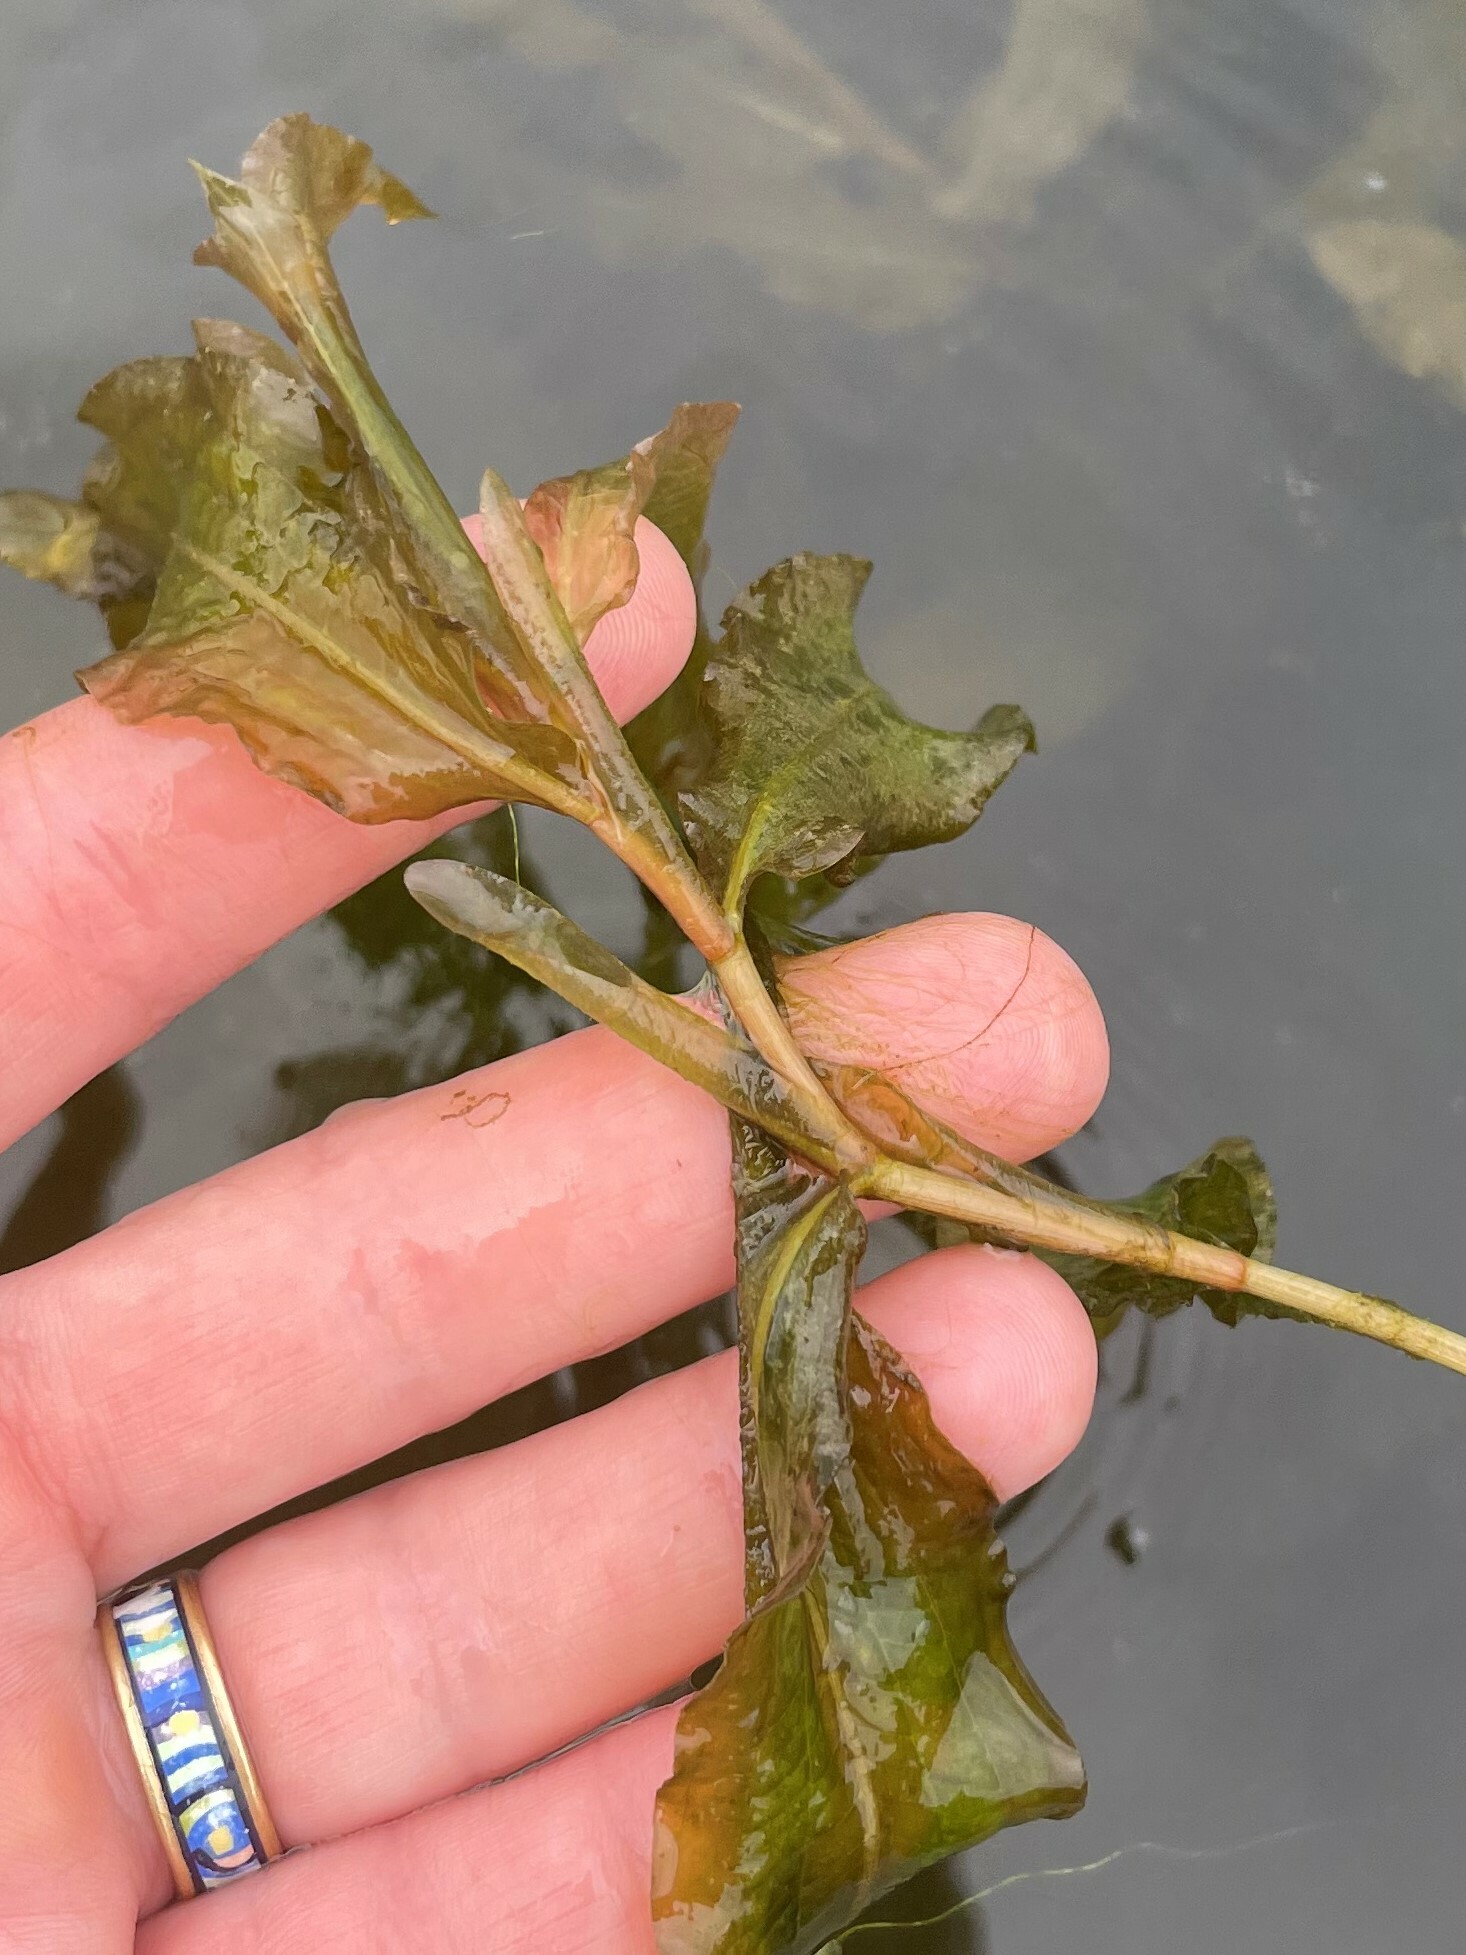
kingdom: Plantae
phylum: Tracheophyta
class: Liliopsida
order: Alismatales
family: Potamogetonaceae
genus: Potamogeton
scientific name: Potamogeton lucens
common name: Shining pondweed
